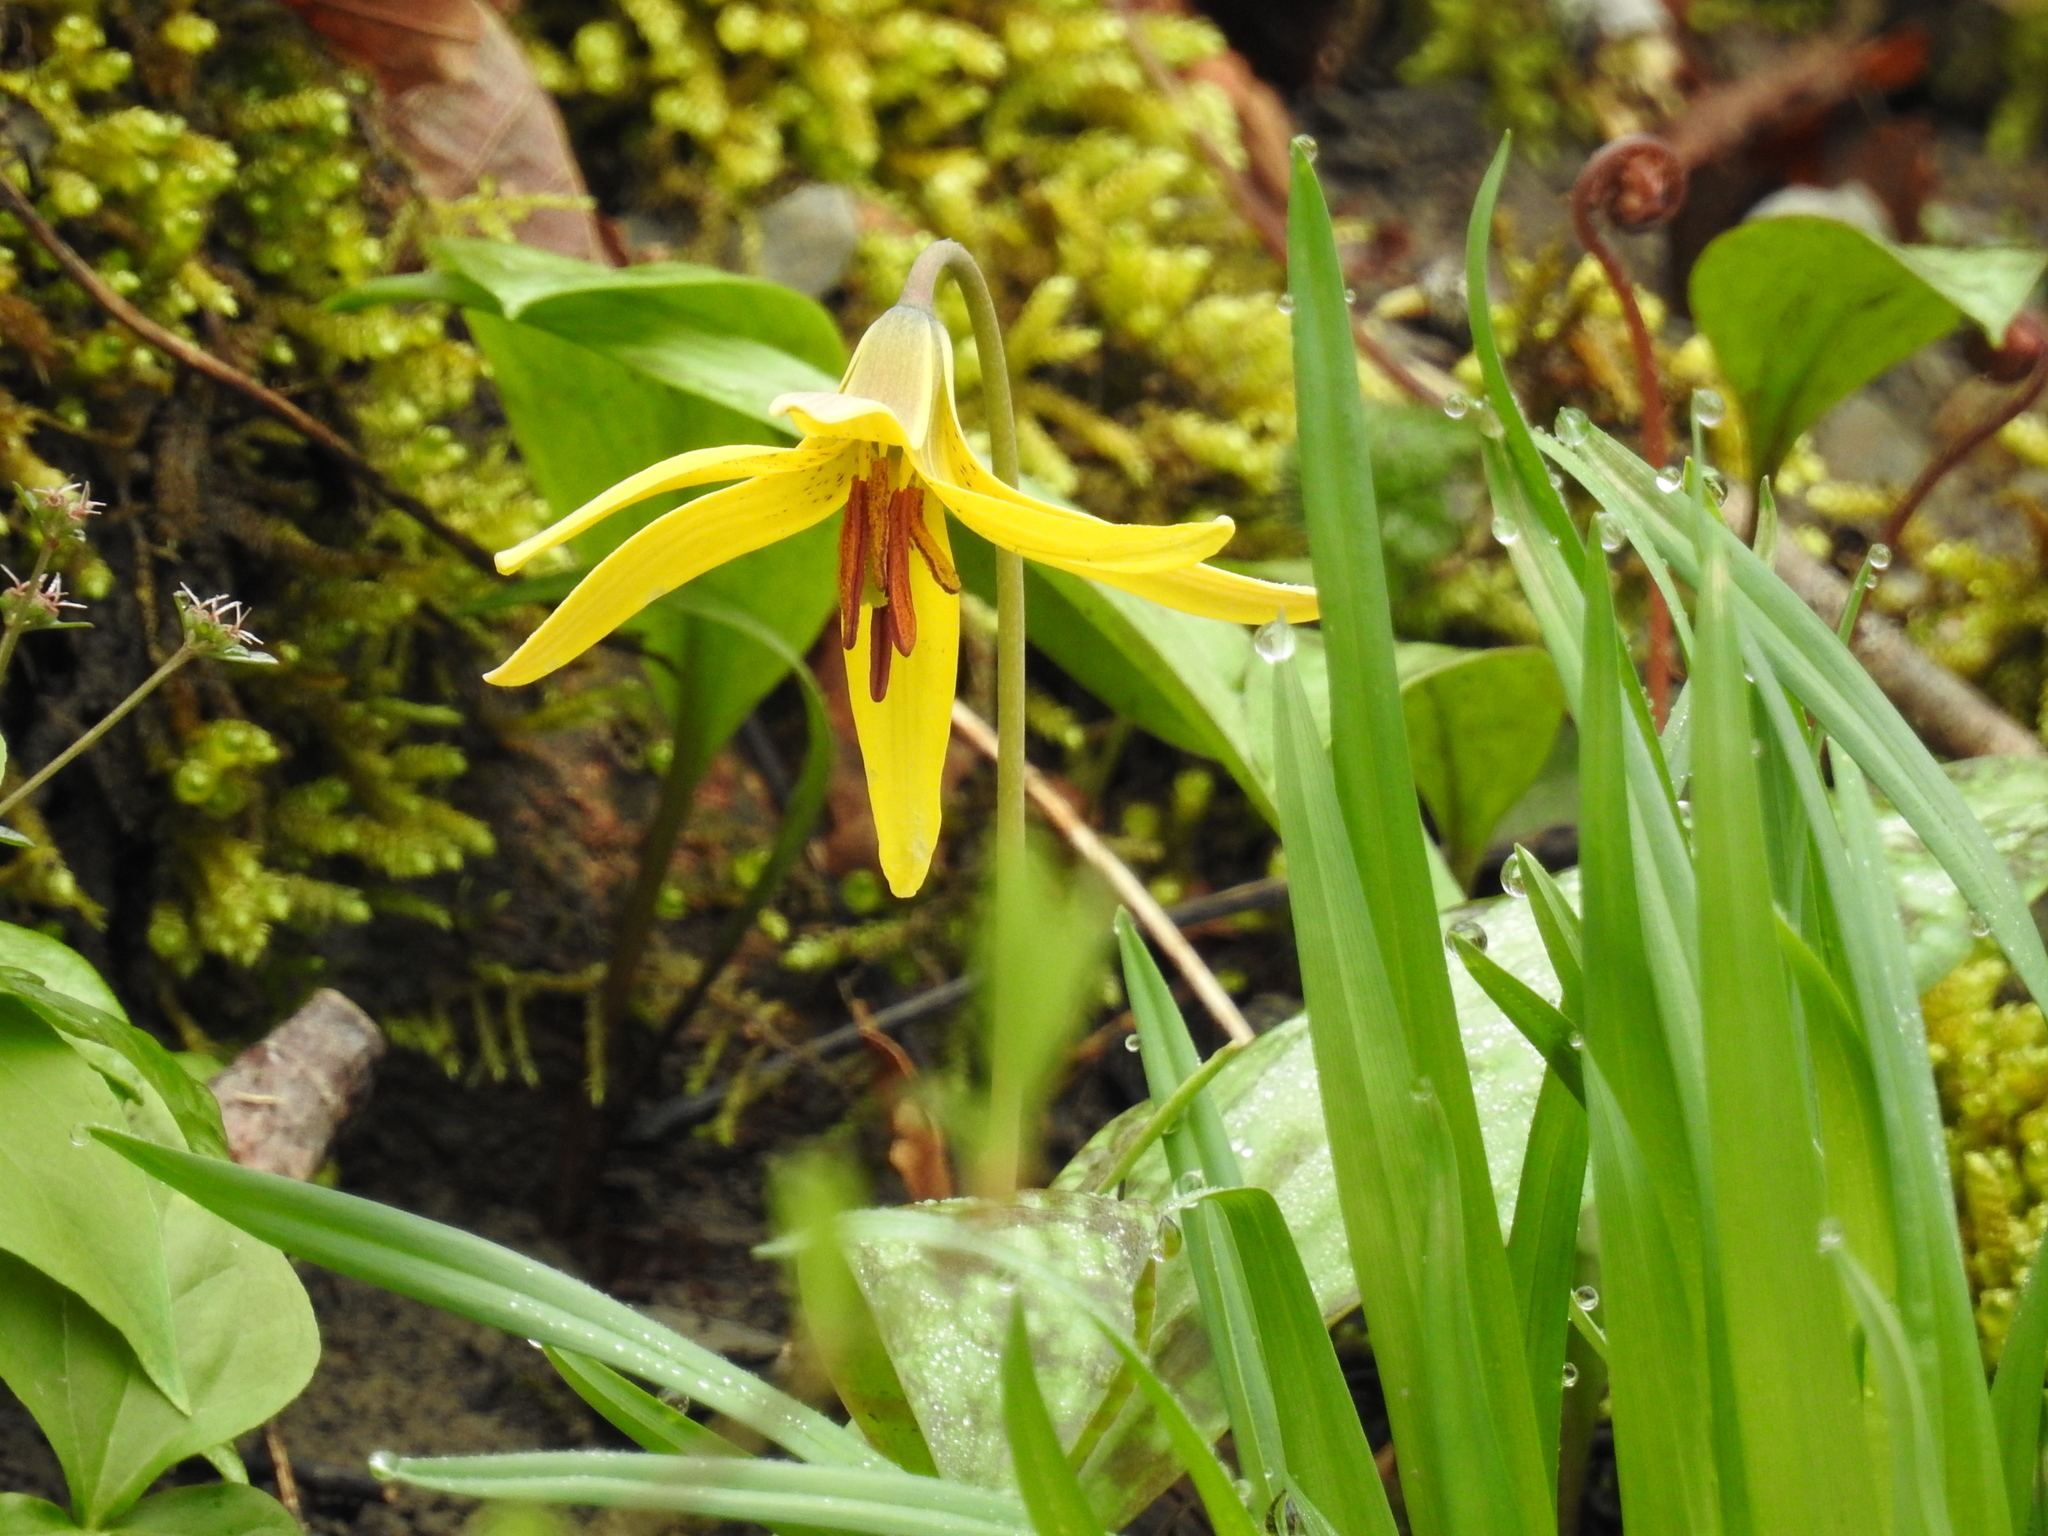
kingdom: Plantae
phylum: Tracheophyta
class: Liliopsida
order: Liliales
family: Liliaceae
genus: Erythronium
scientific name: Erythronium americanum
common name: Yellow adder's-tongue
